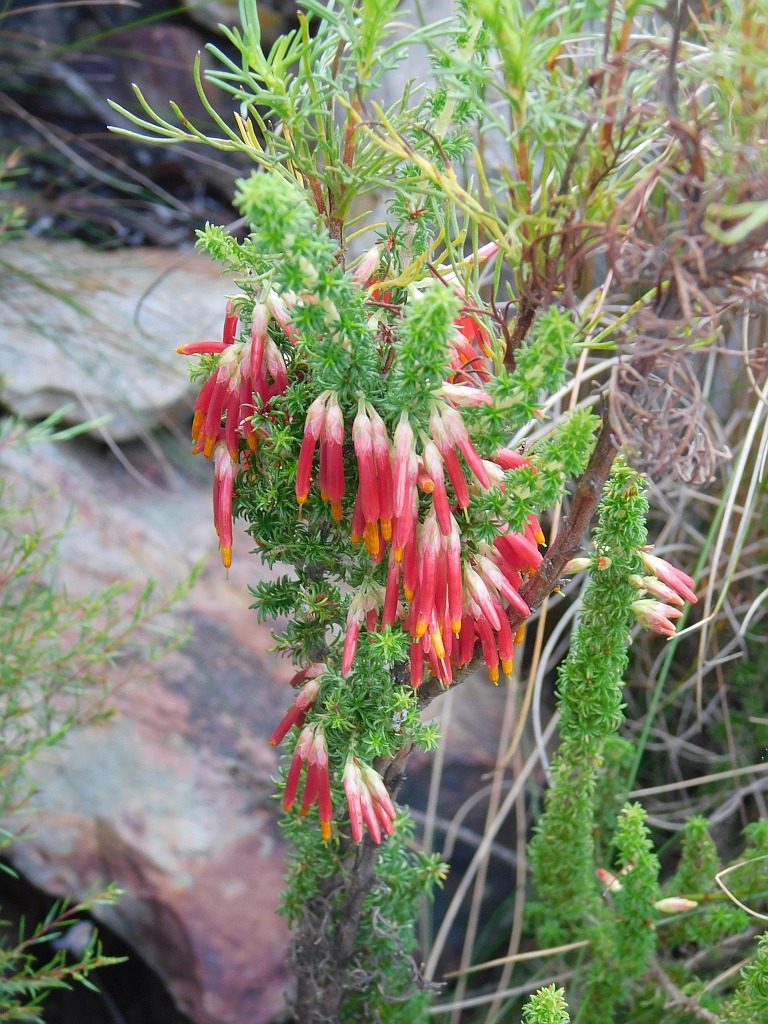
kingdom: Plantae
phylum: Tracheophyta
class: Magnoliopsida
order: Ericales
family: Ericaceae
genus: Erica
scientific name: Erica coccinea
